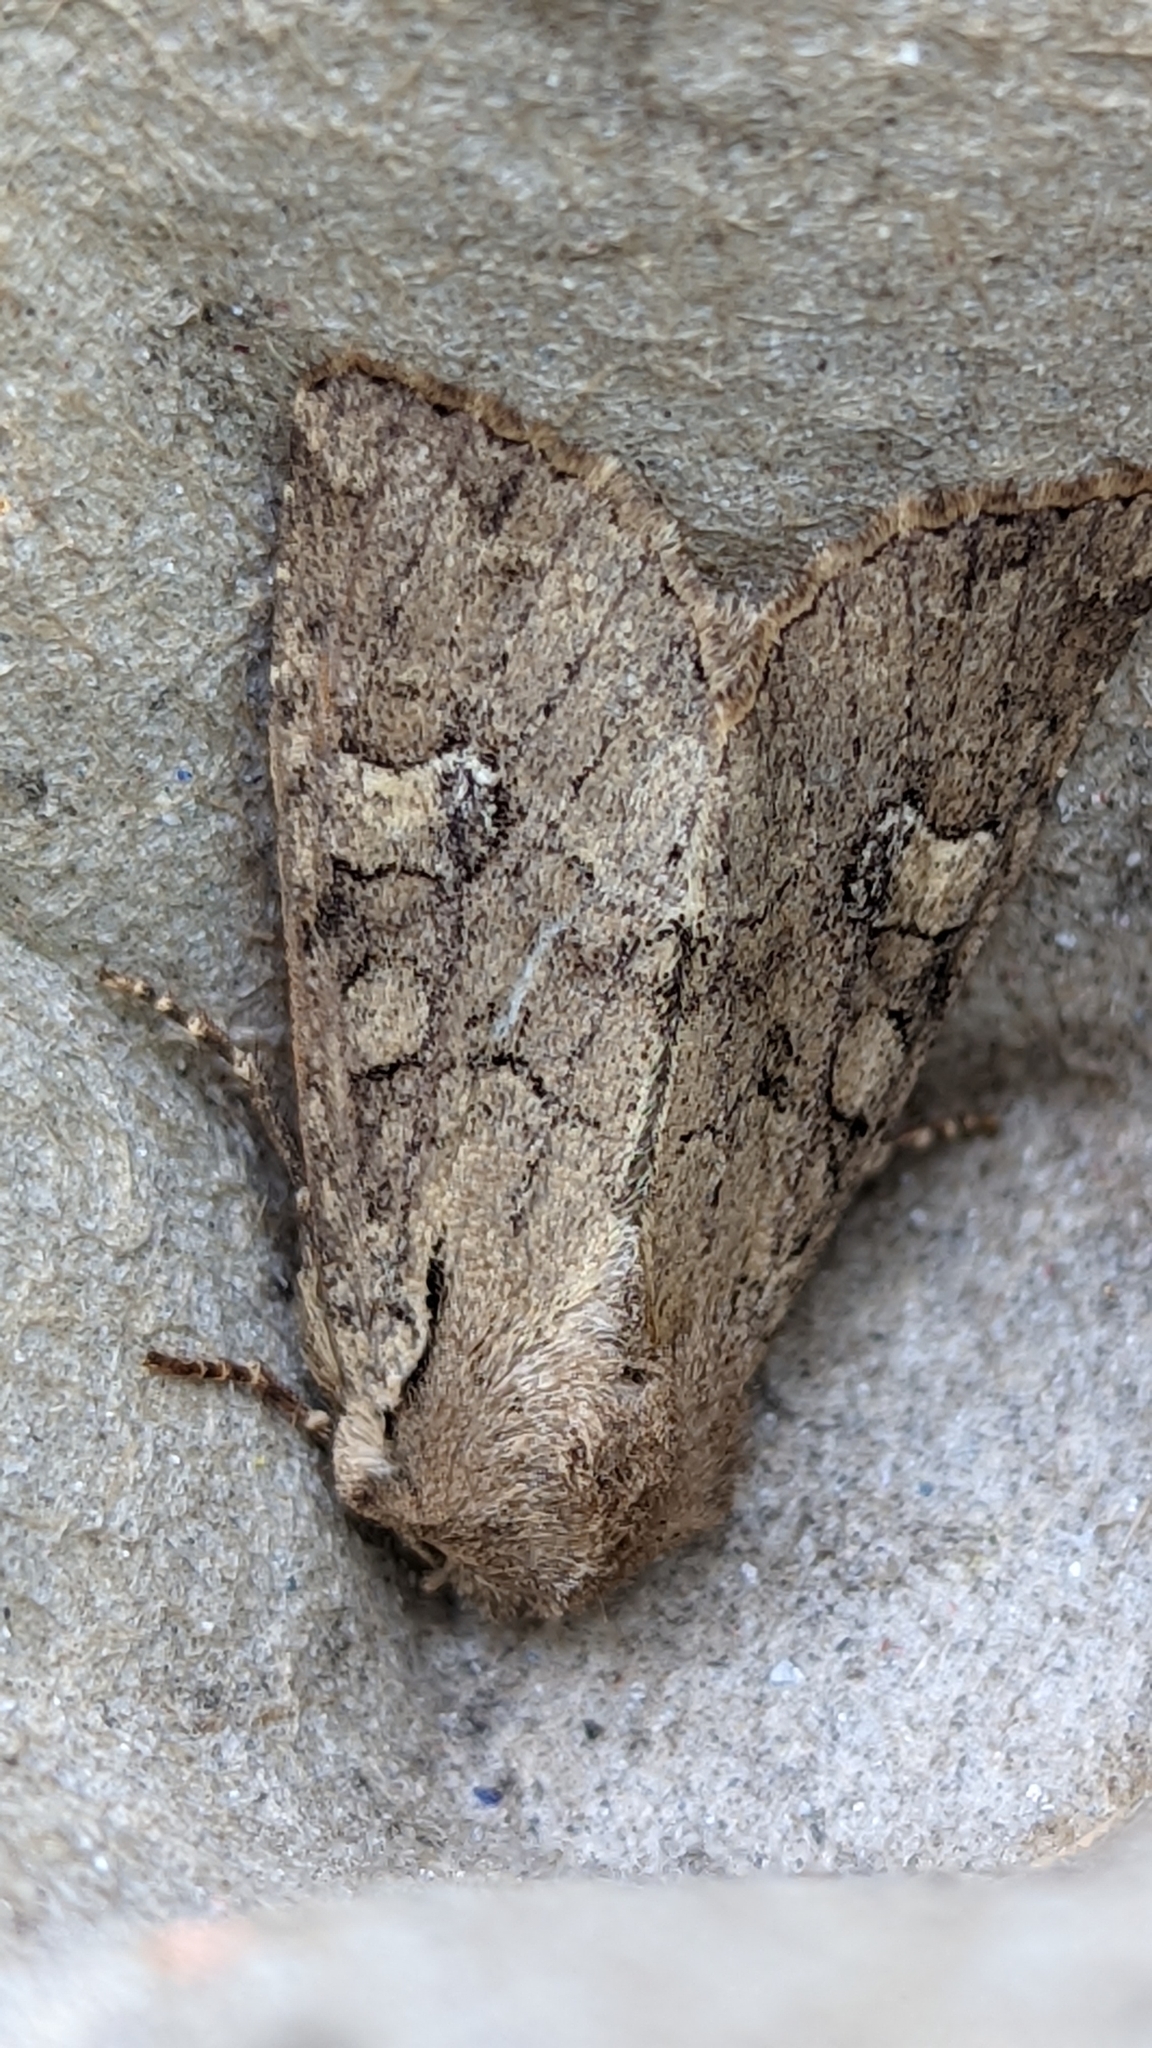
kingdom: Animalia
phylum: Arthropoda
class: Insecta
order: Lepidoptera
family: Noctuidae
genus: Apamea
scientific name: Apamea sordens
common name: Rustic shoulder-knot
